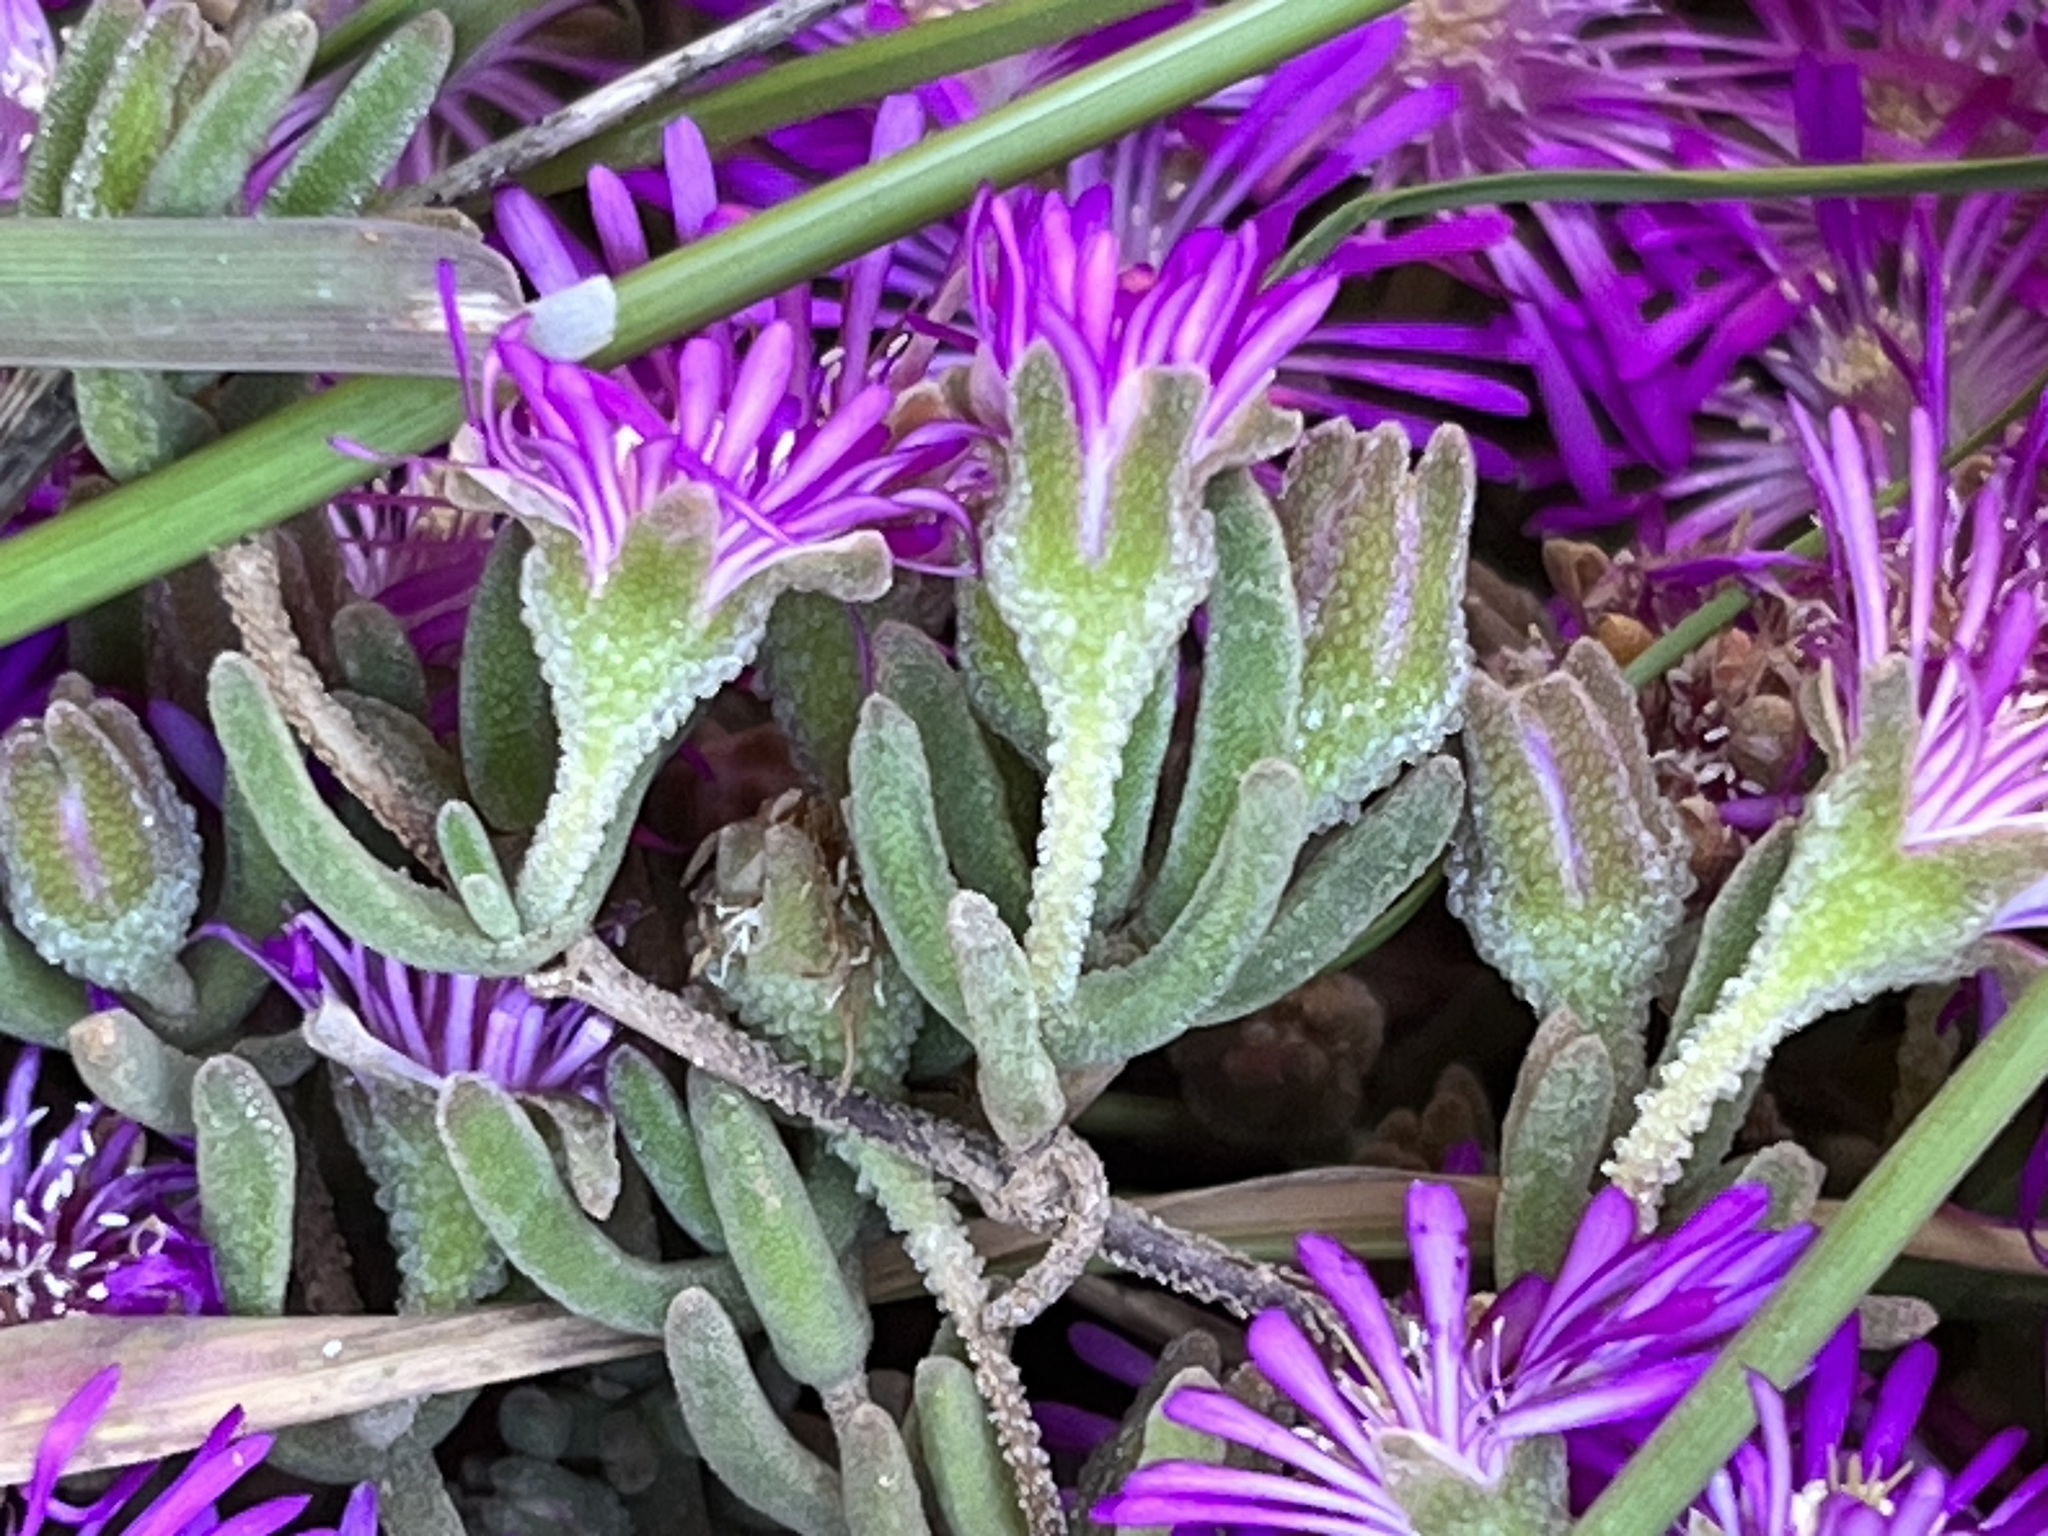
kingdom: Plantae
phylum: Tracheophyta
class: Magnoliopsida
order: Caryophyllales
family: Aizoaceae
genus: Drosanthemum
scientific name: Drosanthemum ambiguum
